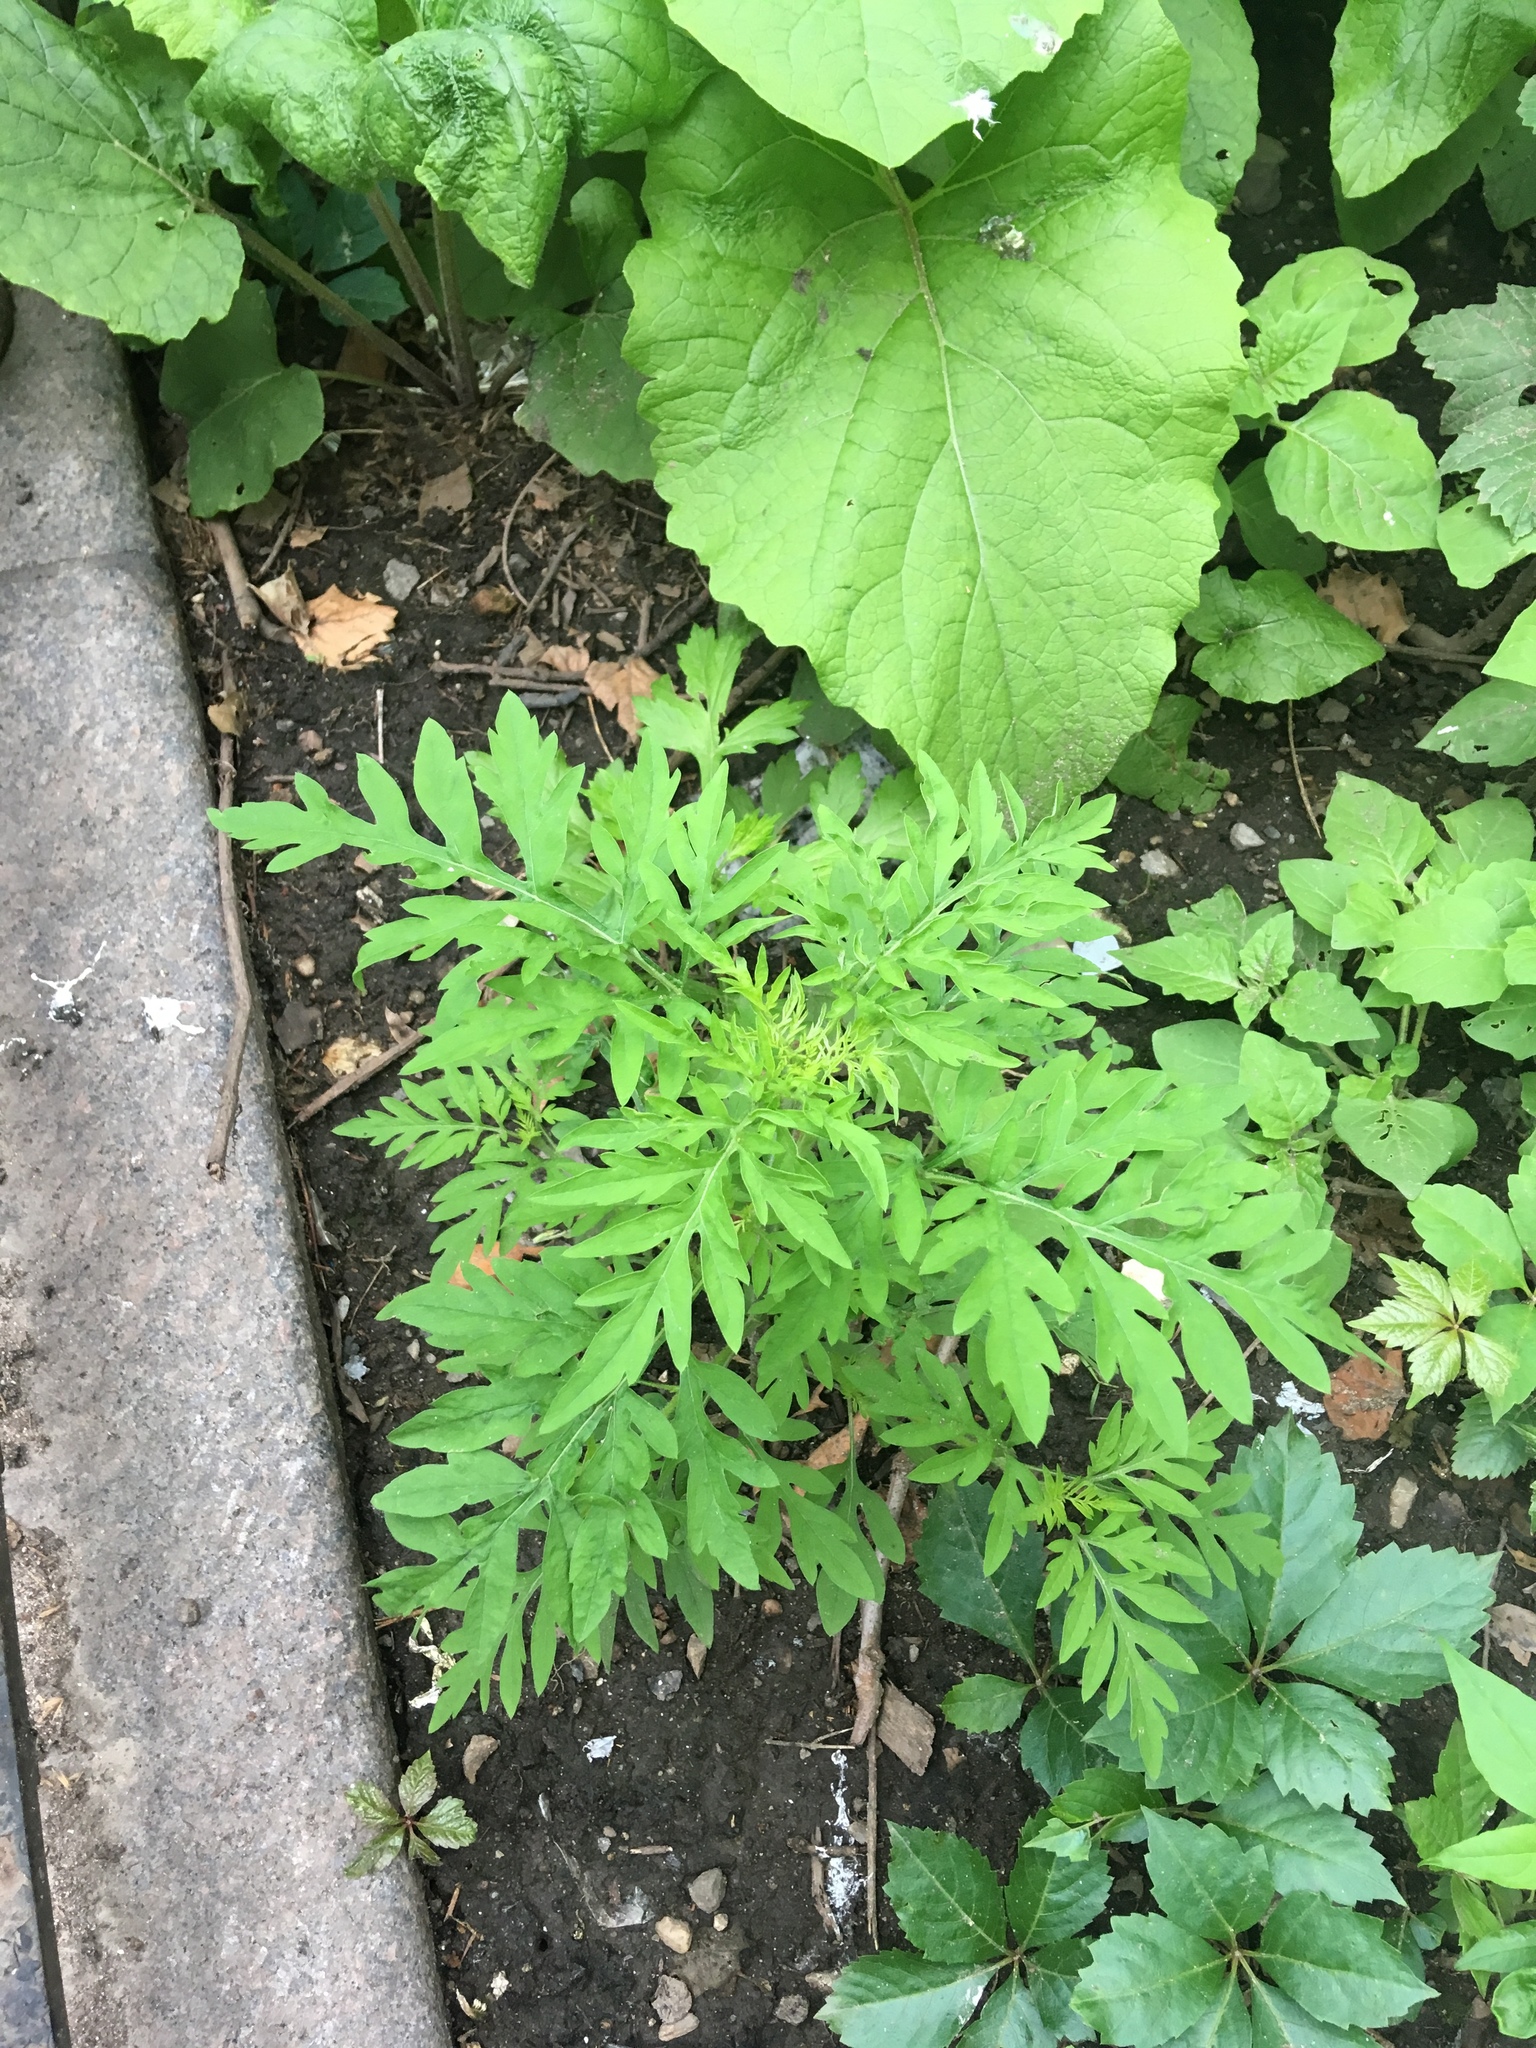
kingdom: Plantae
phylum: Tracheophyta
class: Magnoliopsida
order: Asterales
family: Asteraceae
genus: Ambrosia
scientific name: Ambrosia artemisiifolia
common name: Annual ragweed
